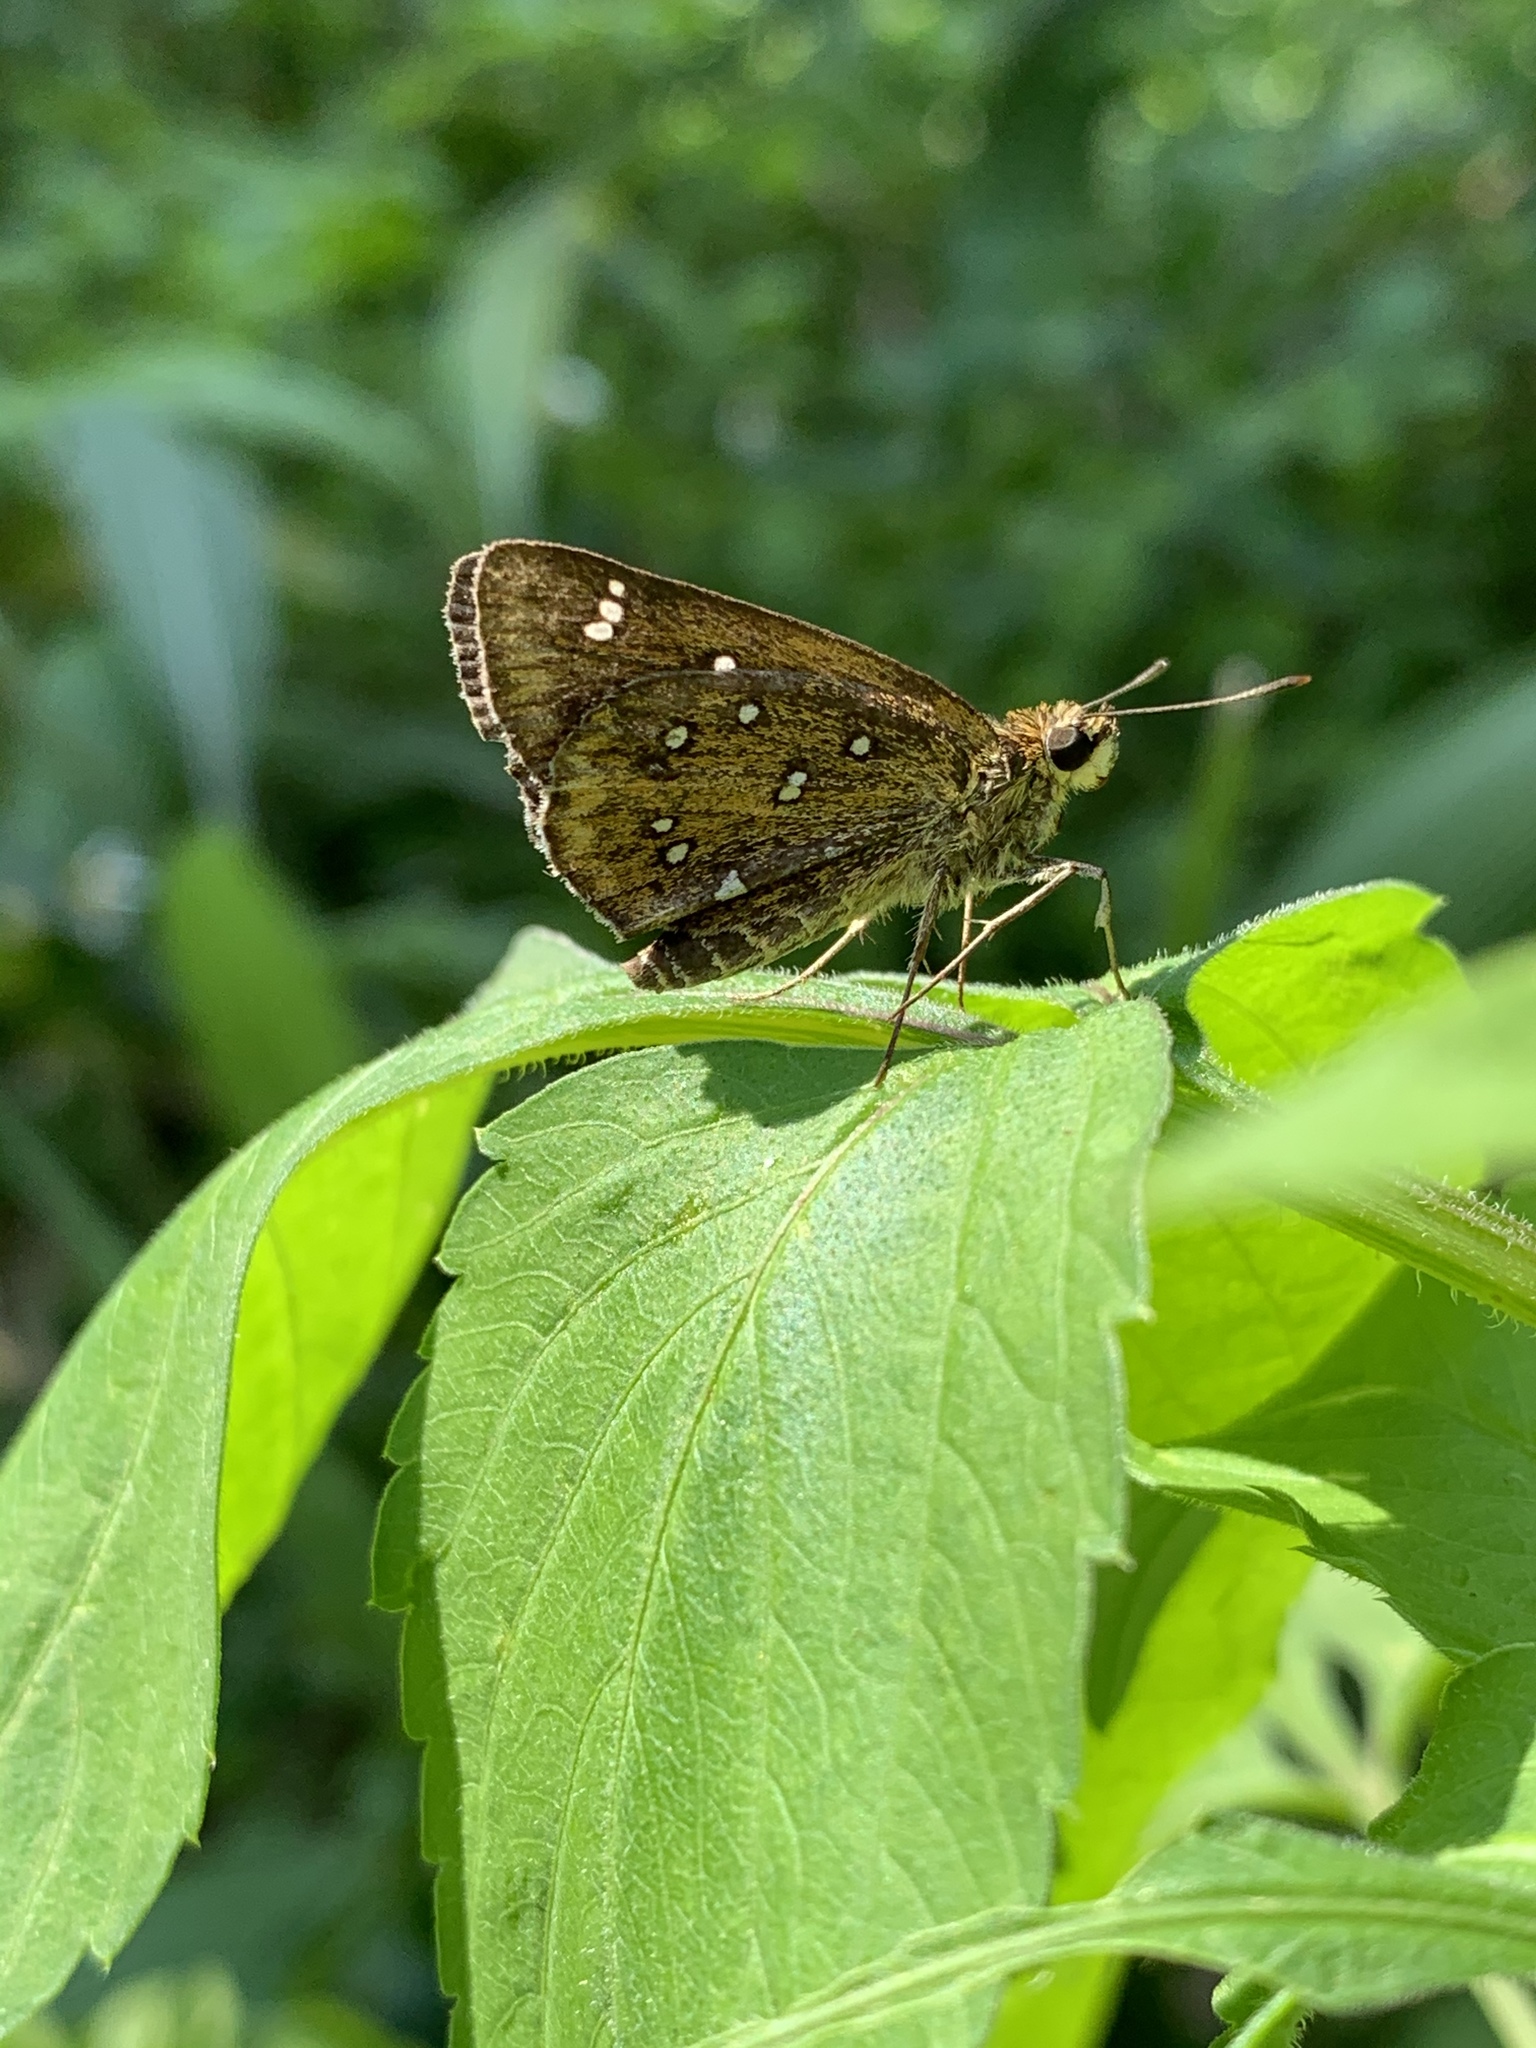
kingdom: Animalia
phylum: Arthropoda
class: Insecta
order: Lepidoptera
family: Hesperiidae
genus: Isoteinon
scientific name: Isoteinon lamprospilus
